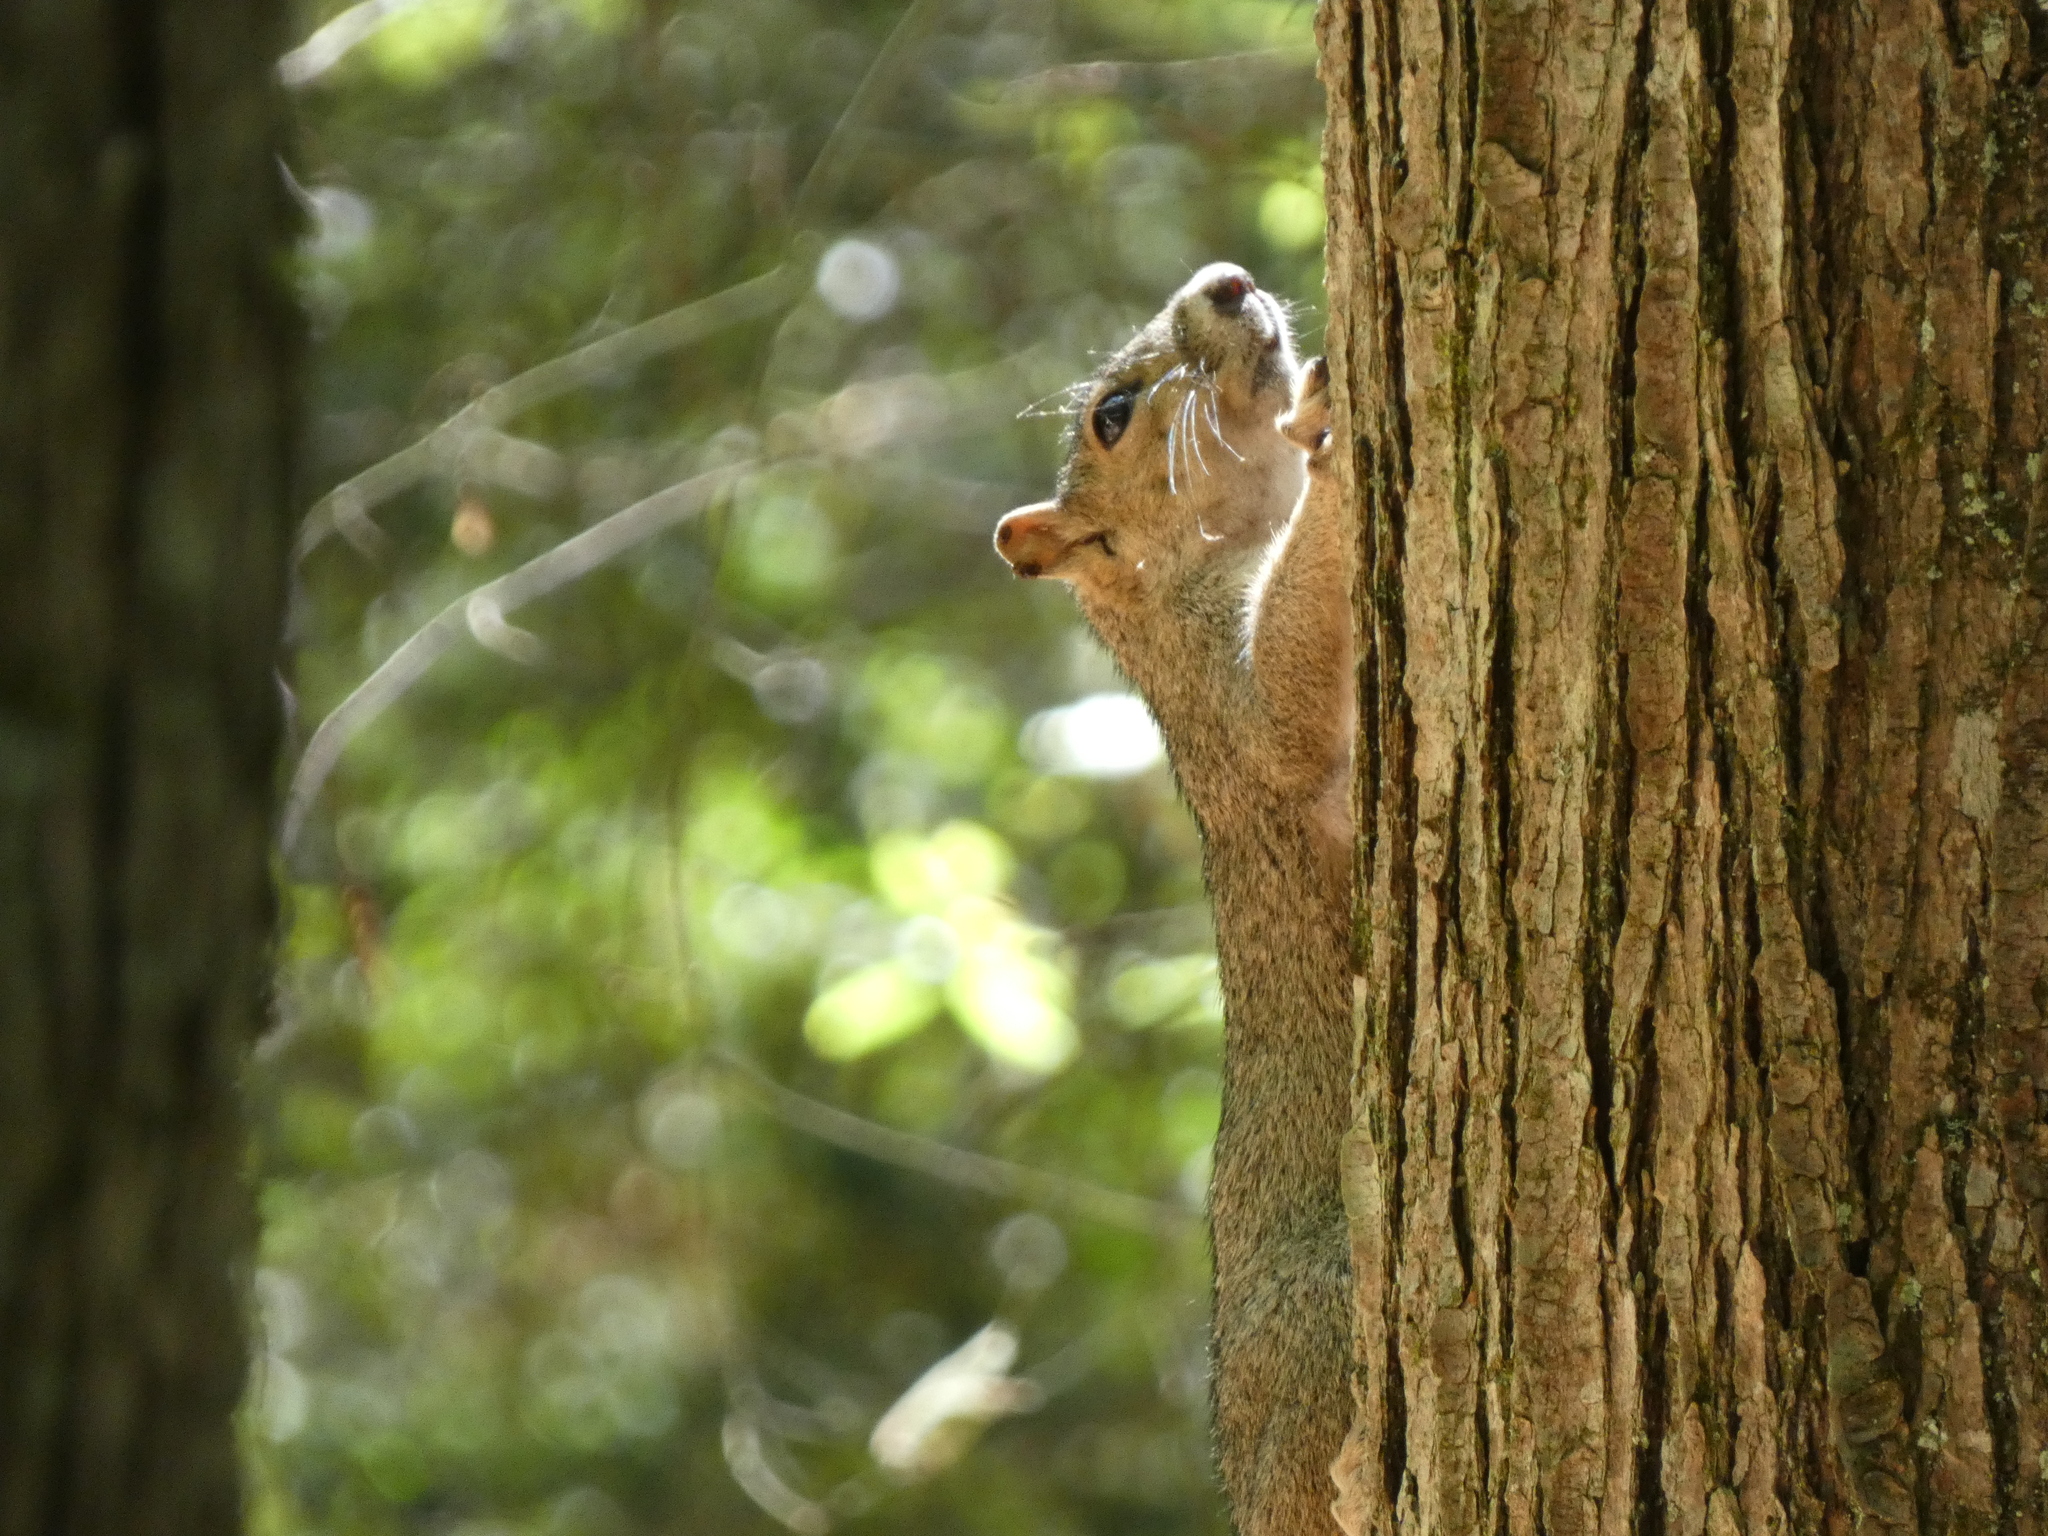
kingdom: Animalia
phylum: Chordata
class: Mammalia
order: Rodentia
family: Sciuridae
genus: Sciurus
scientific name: Sciurus niger
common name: Fox squirrel
